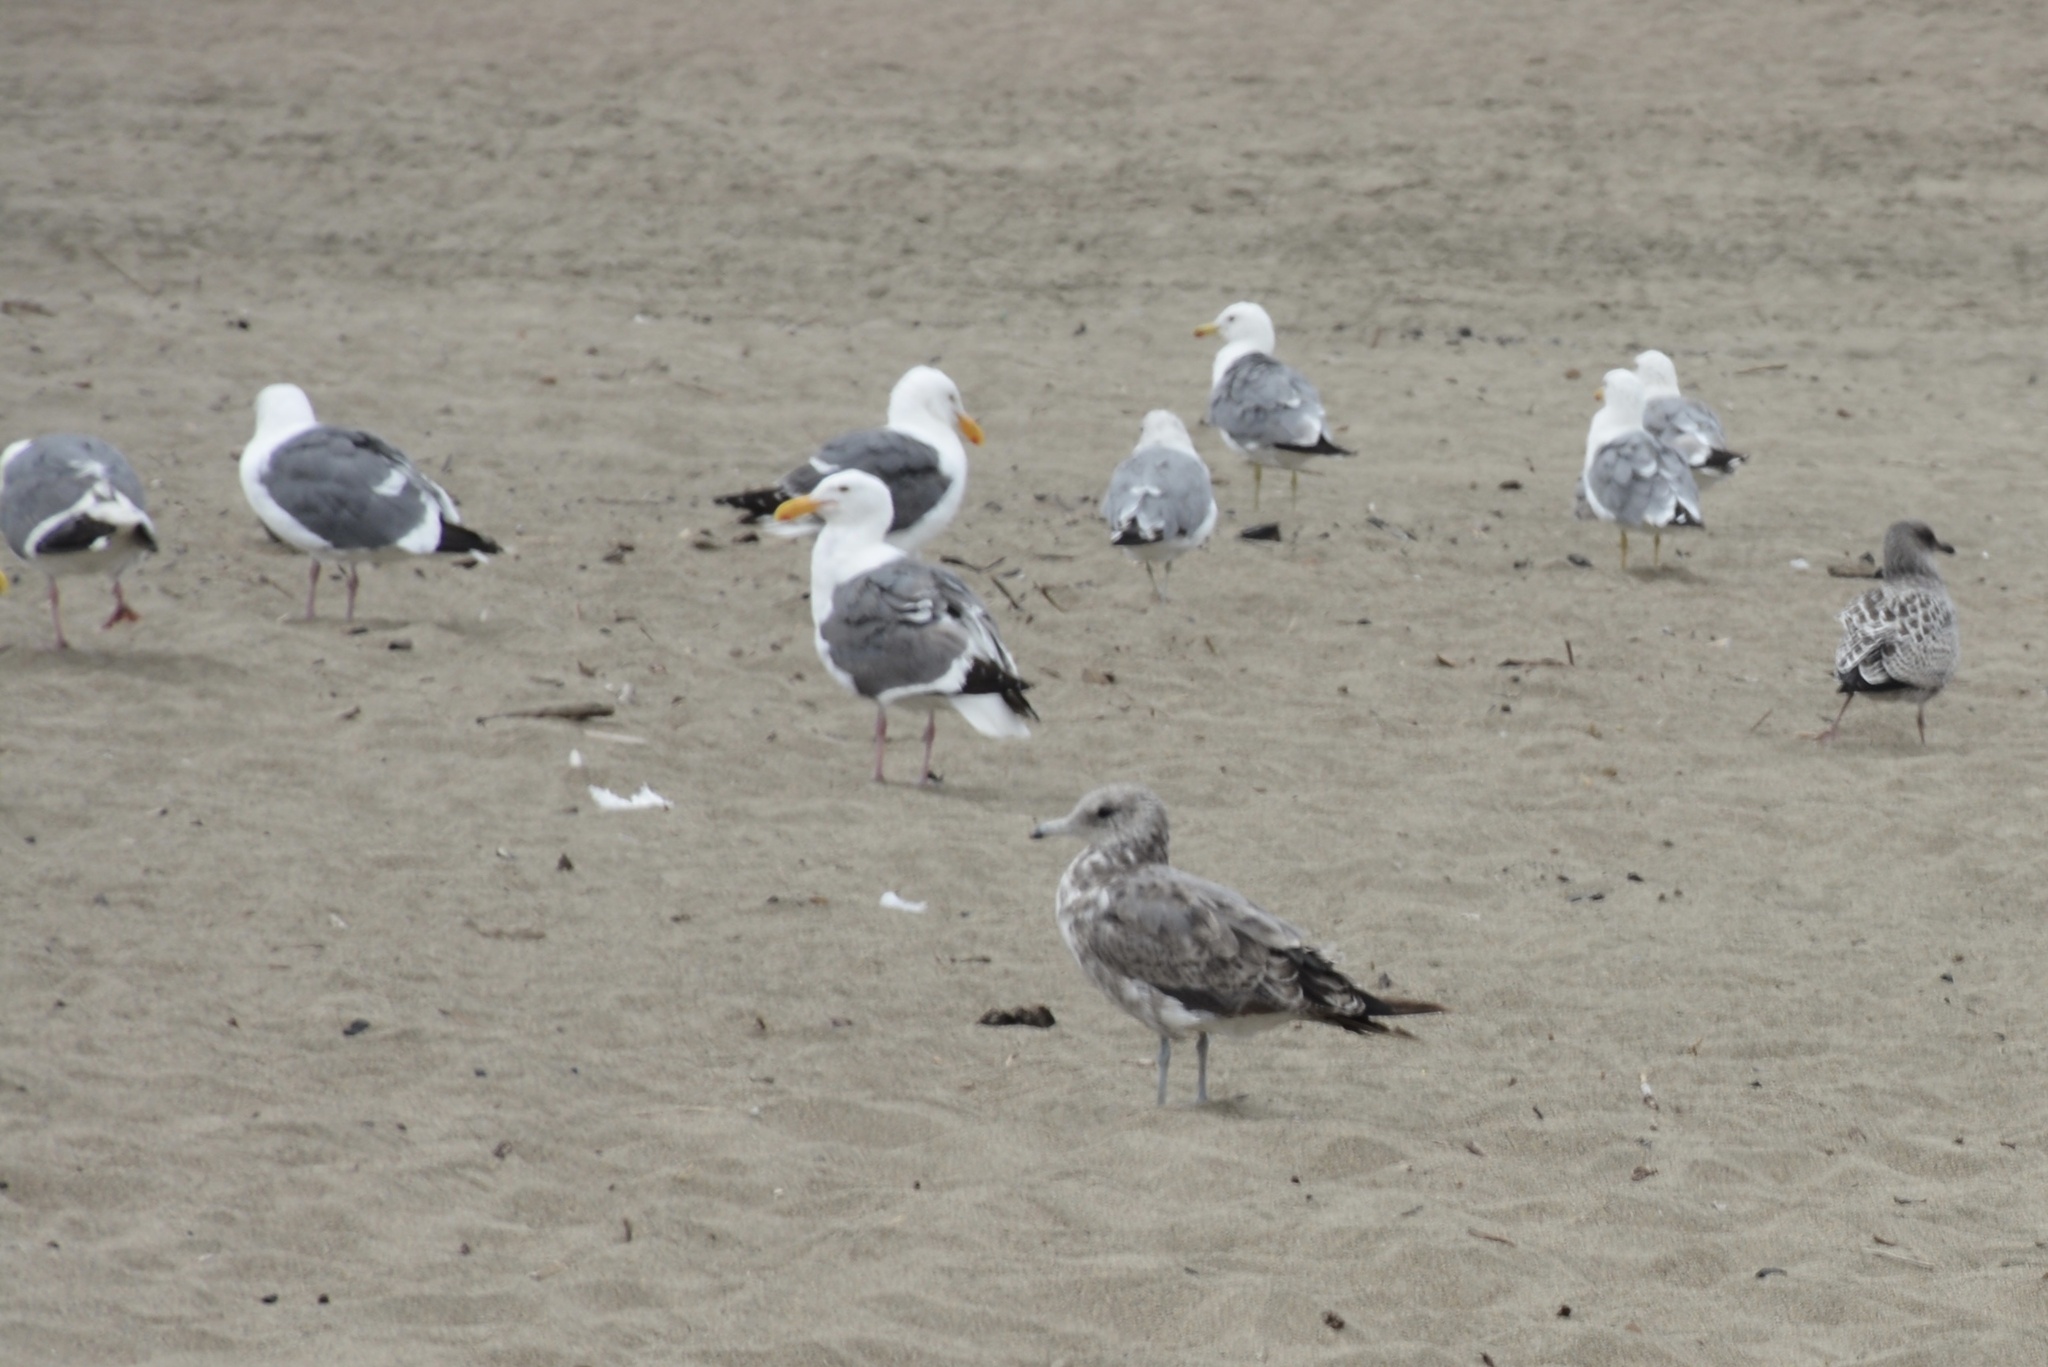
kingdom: Animalia
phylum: Chordata
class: Aves
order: Charadriiformes
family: Laridae
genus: Larus
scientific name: Larus occidentalis
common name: Western gull
